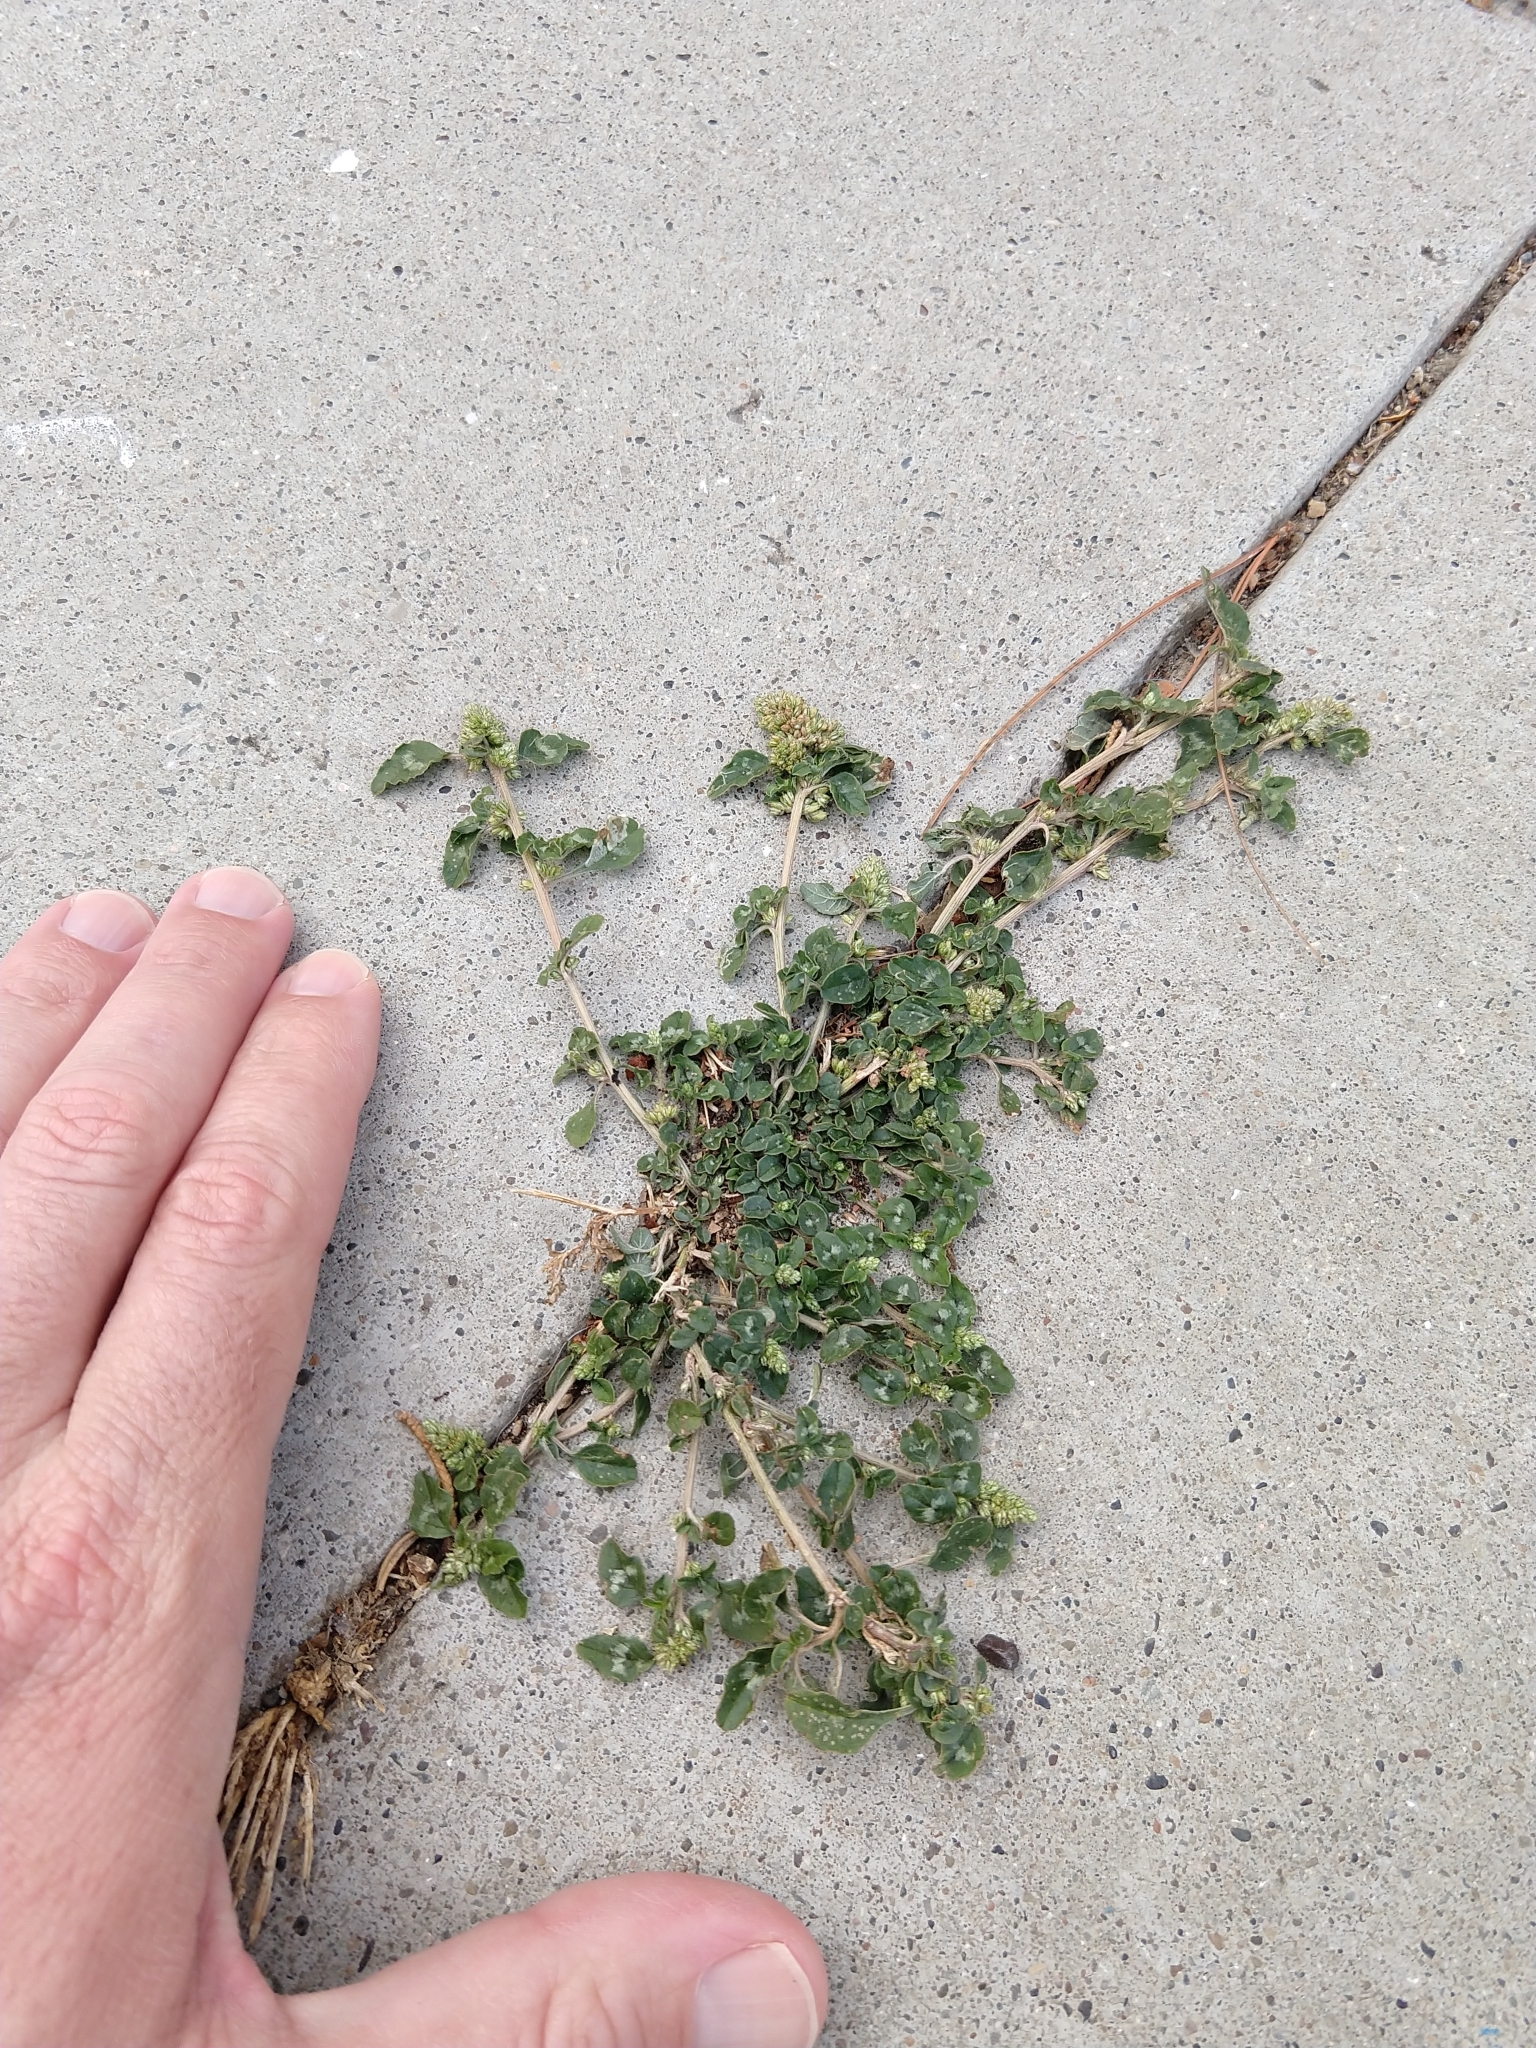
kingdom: Plantae
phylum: Tracheophyta
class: Magnoliopsida
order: Caryophyllales
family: Amaranthaceae
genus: Amaranthus
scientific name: Amaranthus deflexus
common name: Perennial pigweed
